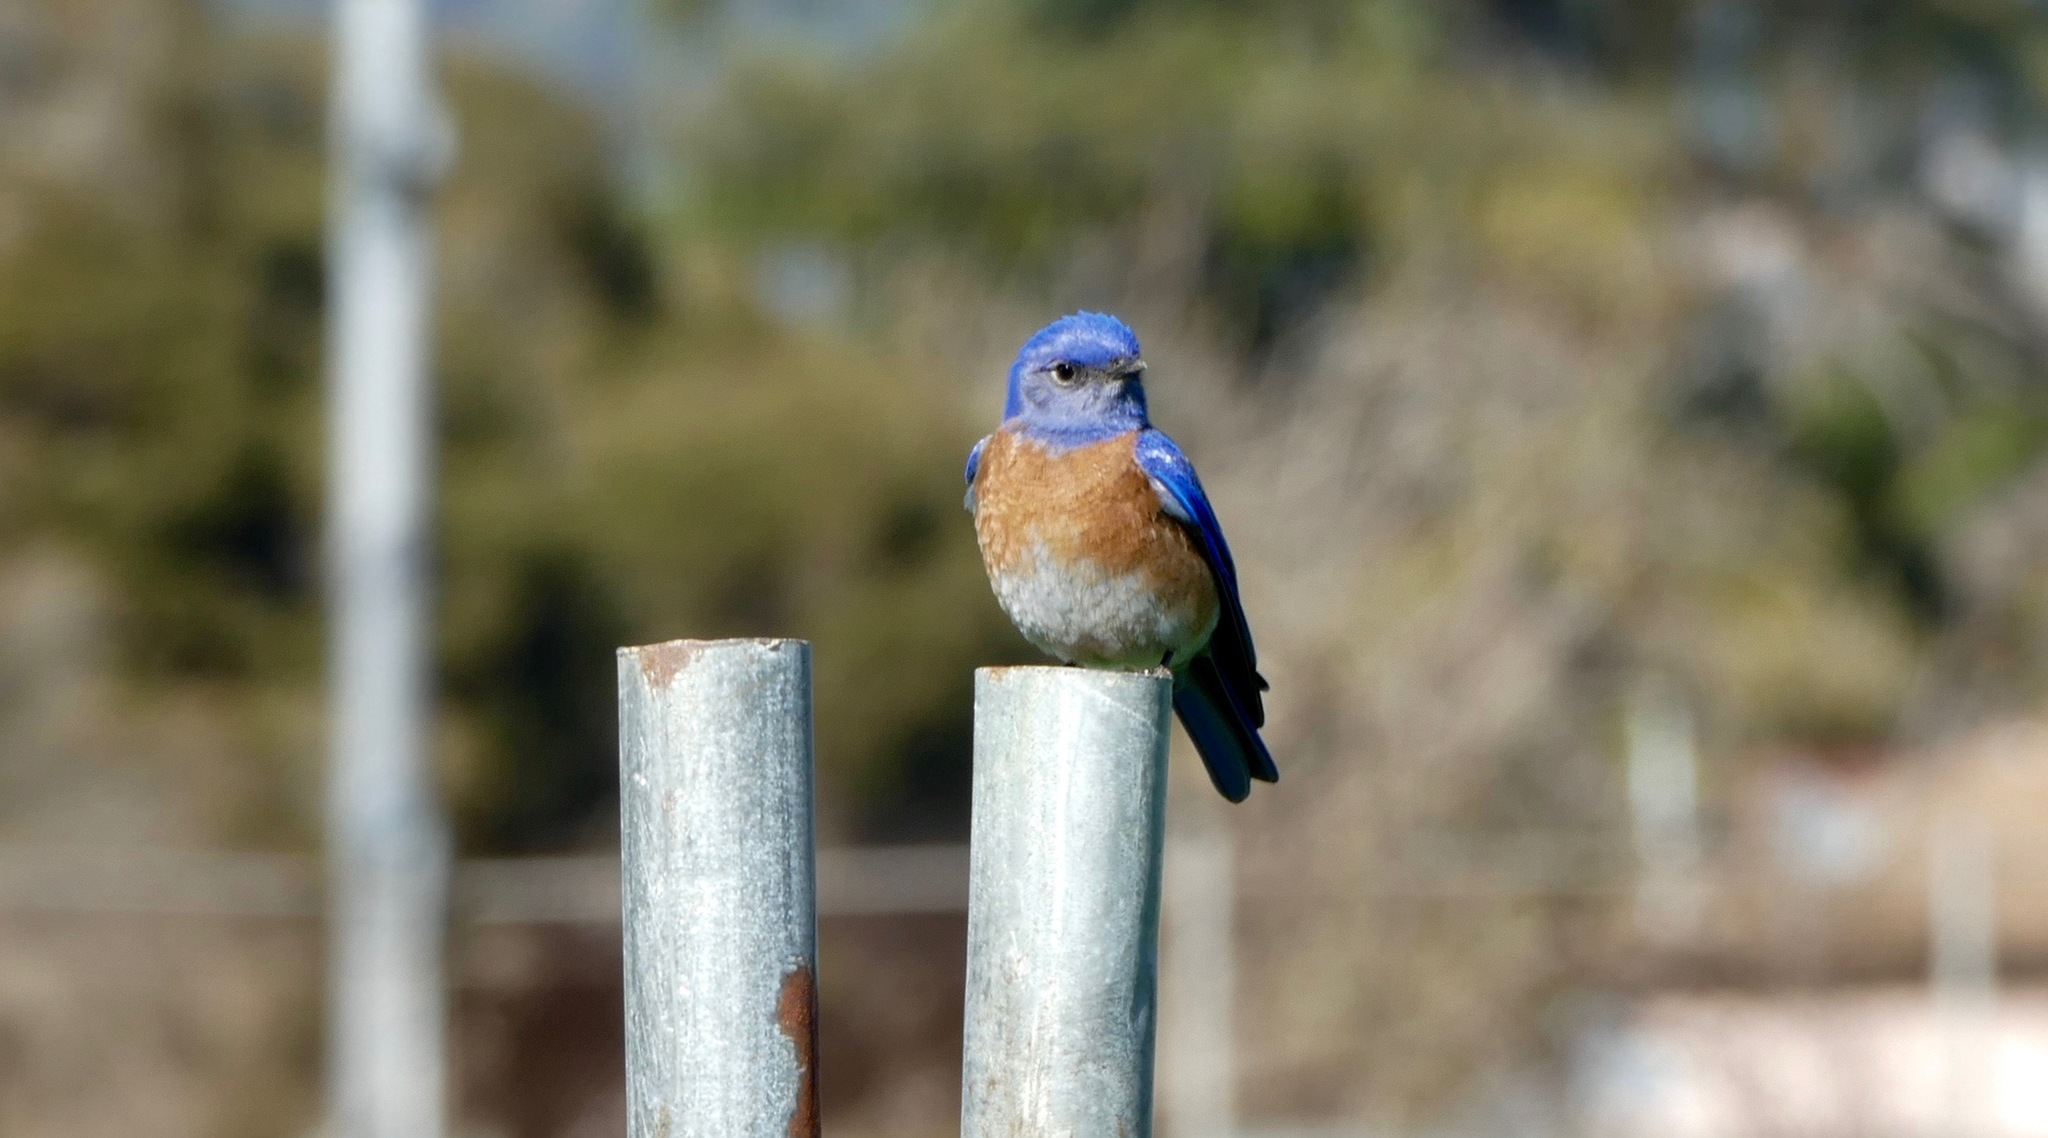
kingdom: Animalia
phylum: Chordata
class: Aves
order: Passeriformes
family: Turdidae
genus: Sialia
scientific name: Sialia mexicana
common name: Western bluebird
